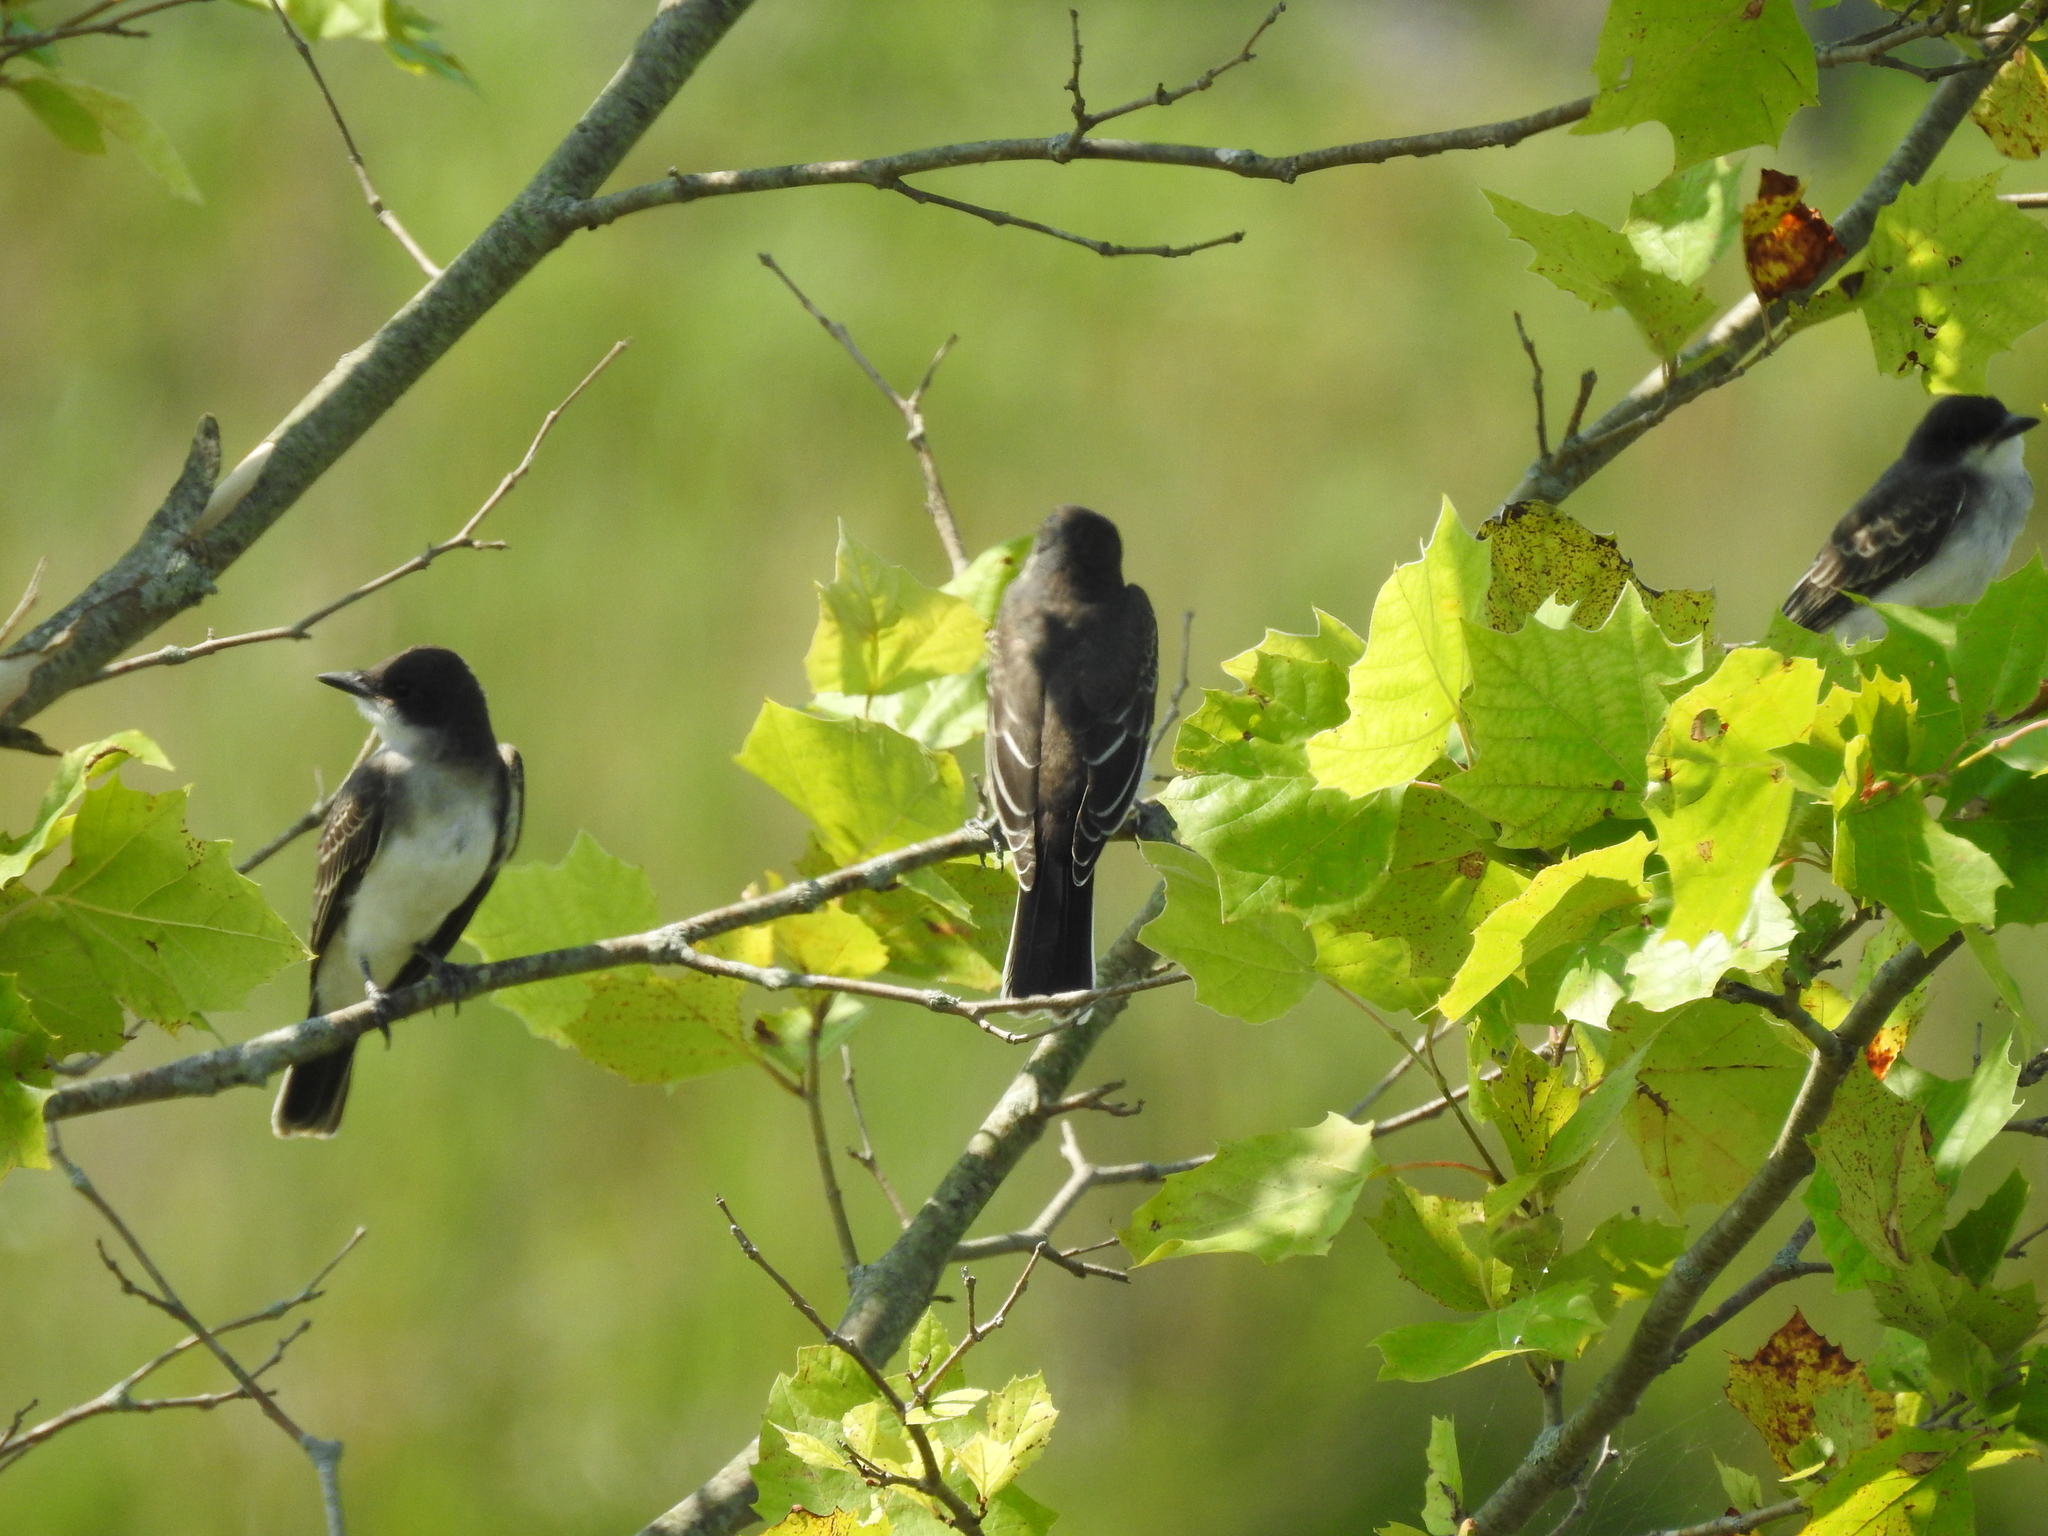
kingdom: Animalia
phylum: Chordata
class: Aves
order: Passeriformes
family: Tyrannidae
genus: Tyrannus
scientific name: Tyrannus tyrannus
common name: Eastern kingbird
